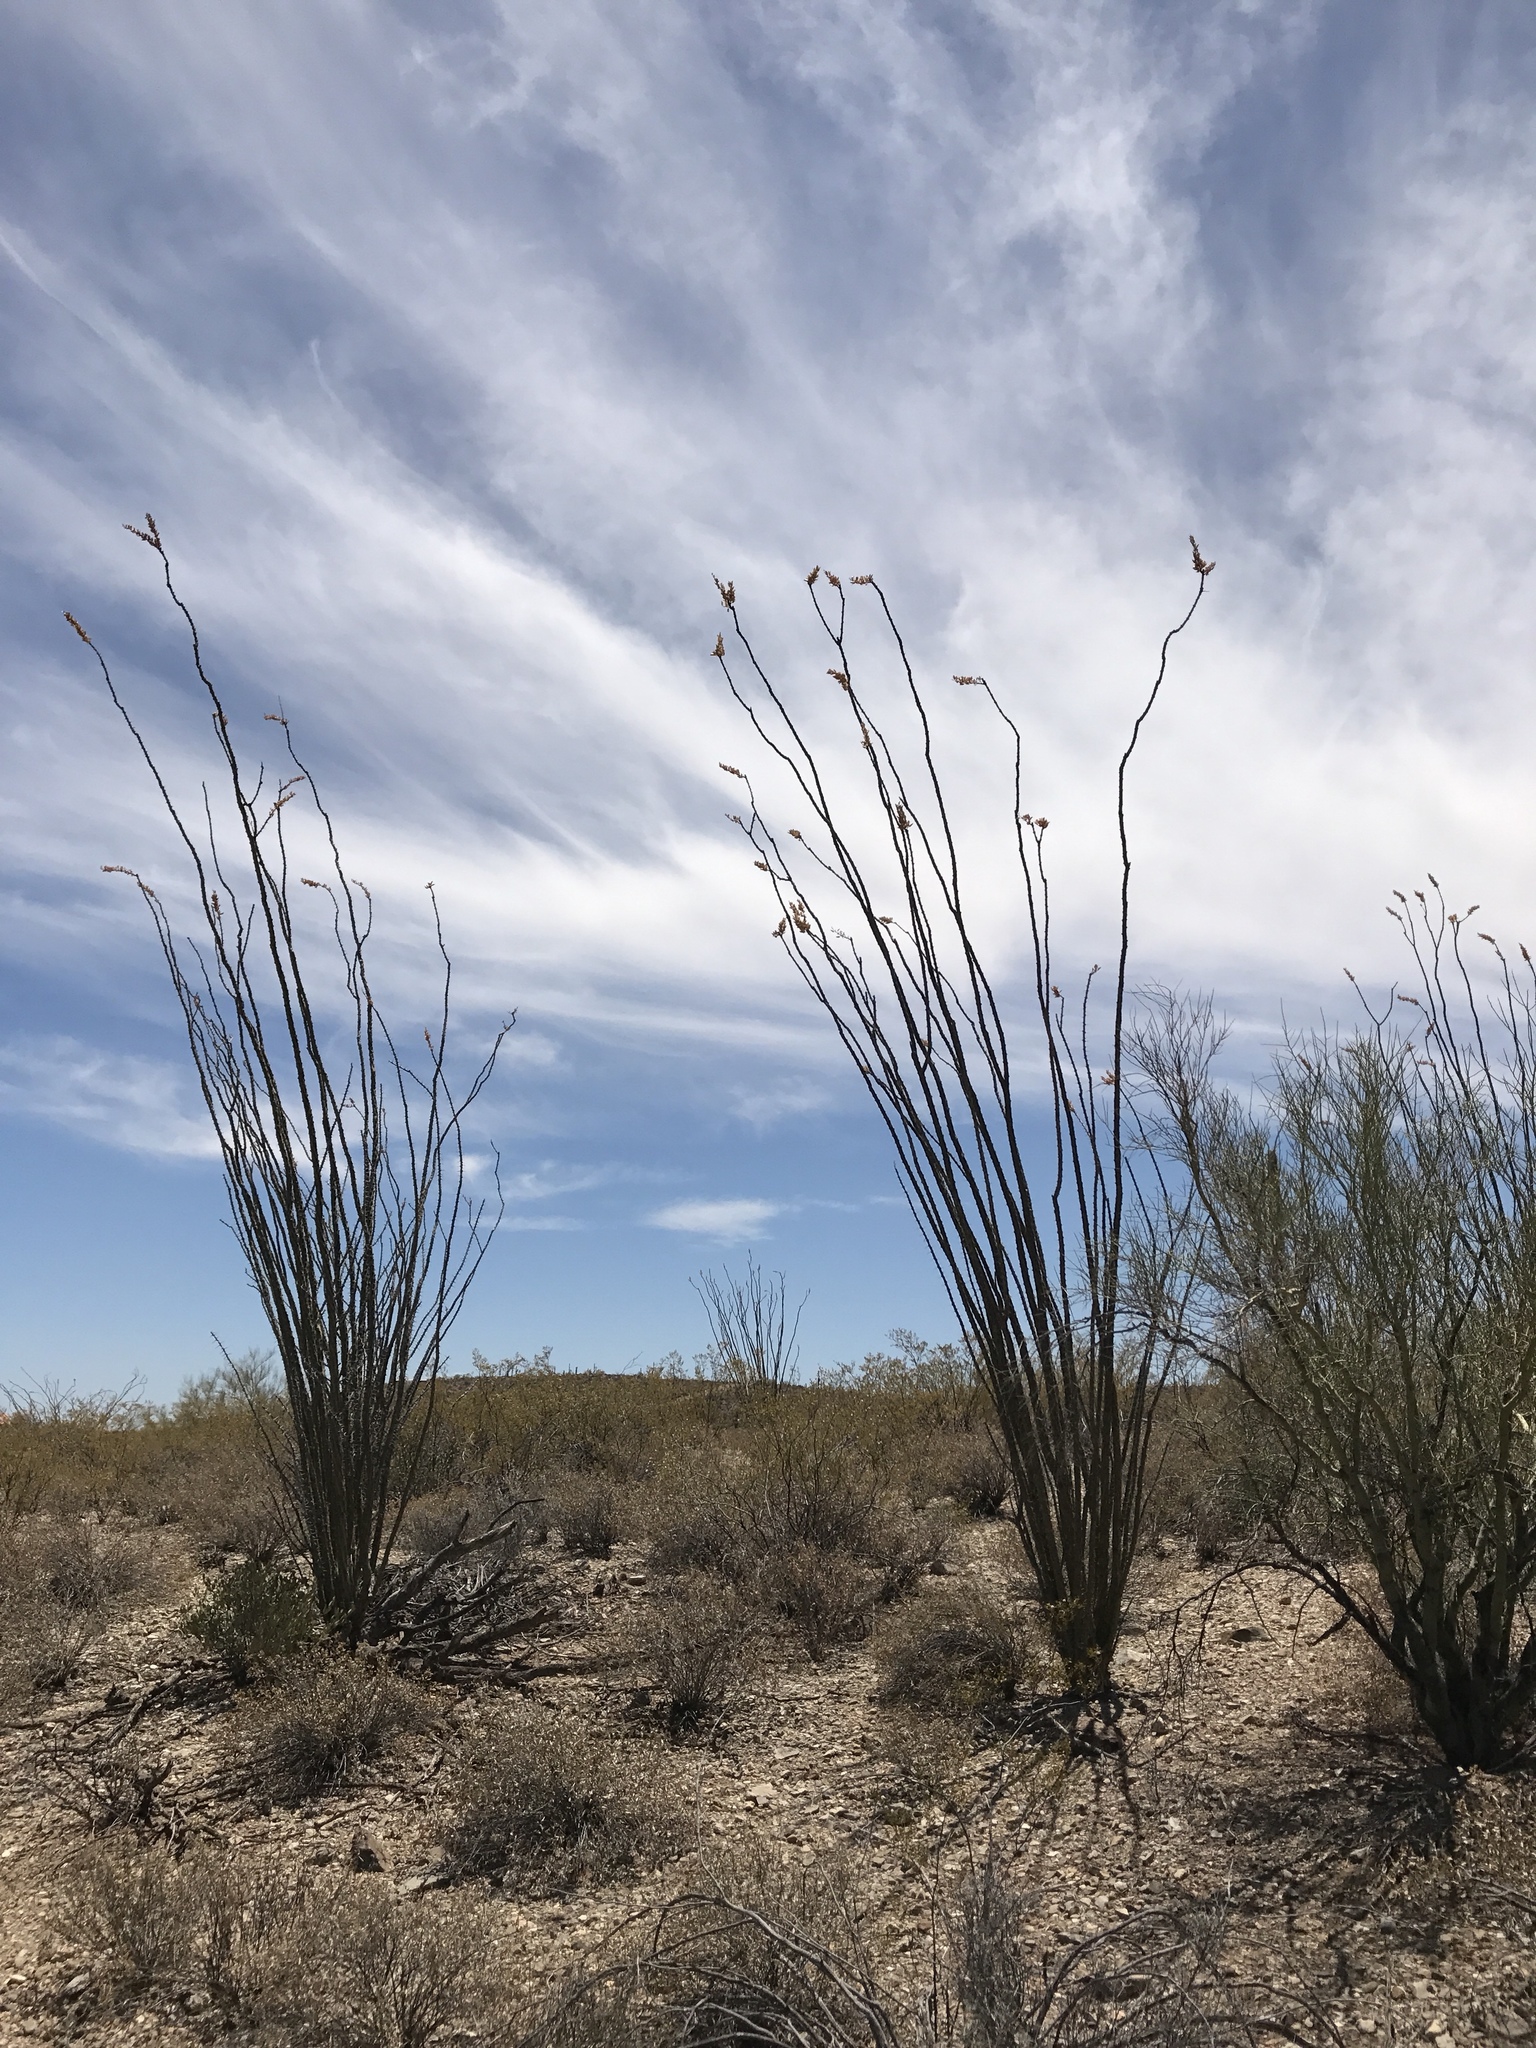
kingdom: Plantae
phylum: Tracheophyta
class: Magnoliopsida
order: Ericales
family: Fouquieriaceae
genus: Fouquieria
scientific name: Fouquieria splendens
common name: Vine-cactus
